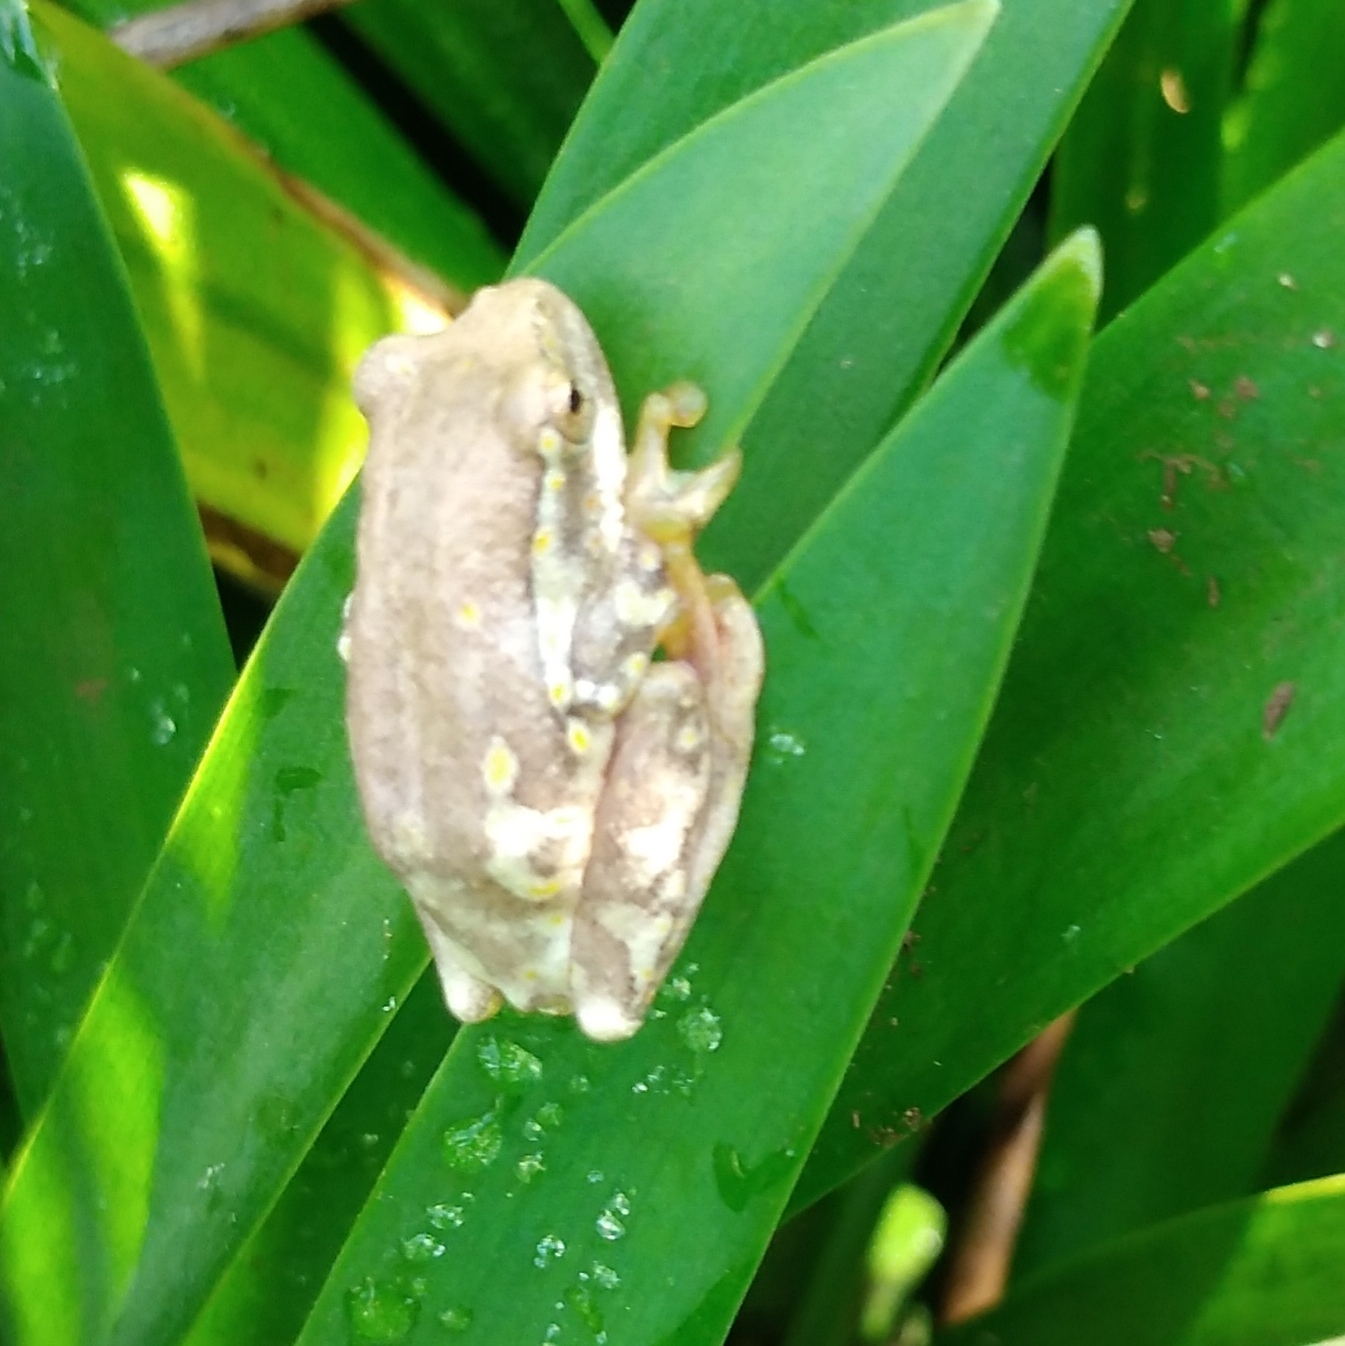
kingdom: Animalia
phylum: Chordata
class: Amphibia
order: Anura
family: Hyperoliidae
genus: Hyperolius
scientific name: Hyperolius marmoratus
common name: Painted reed frog
